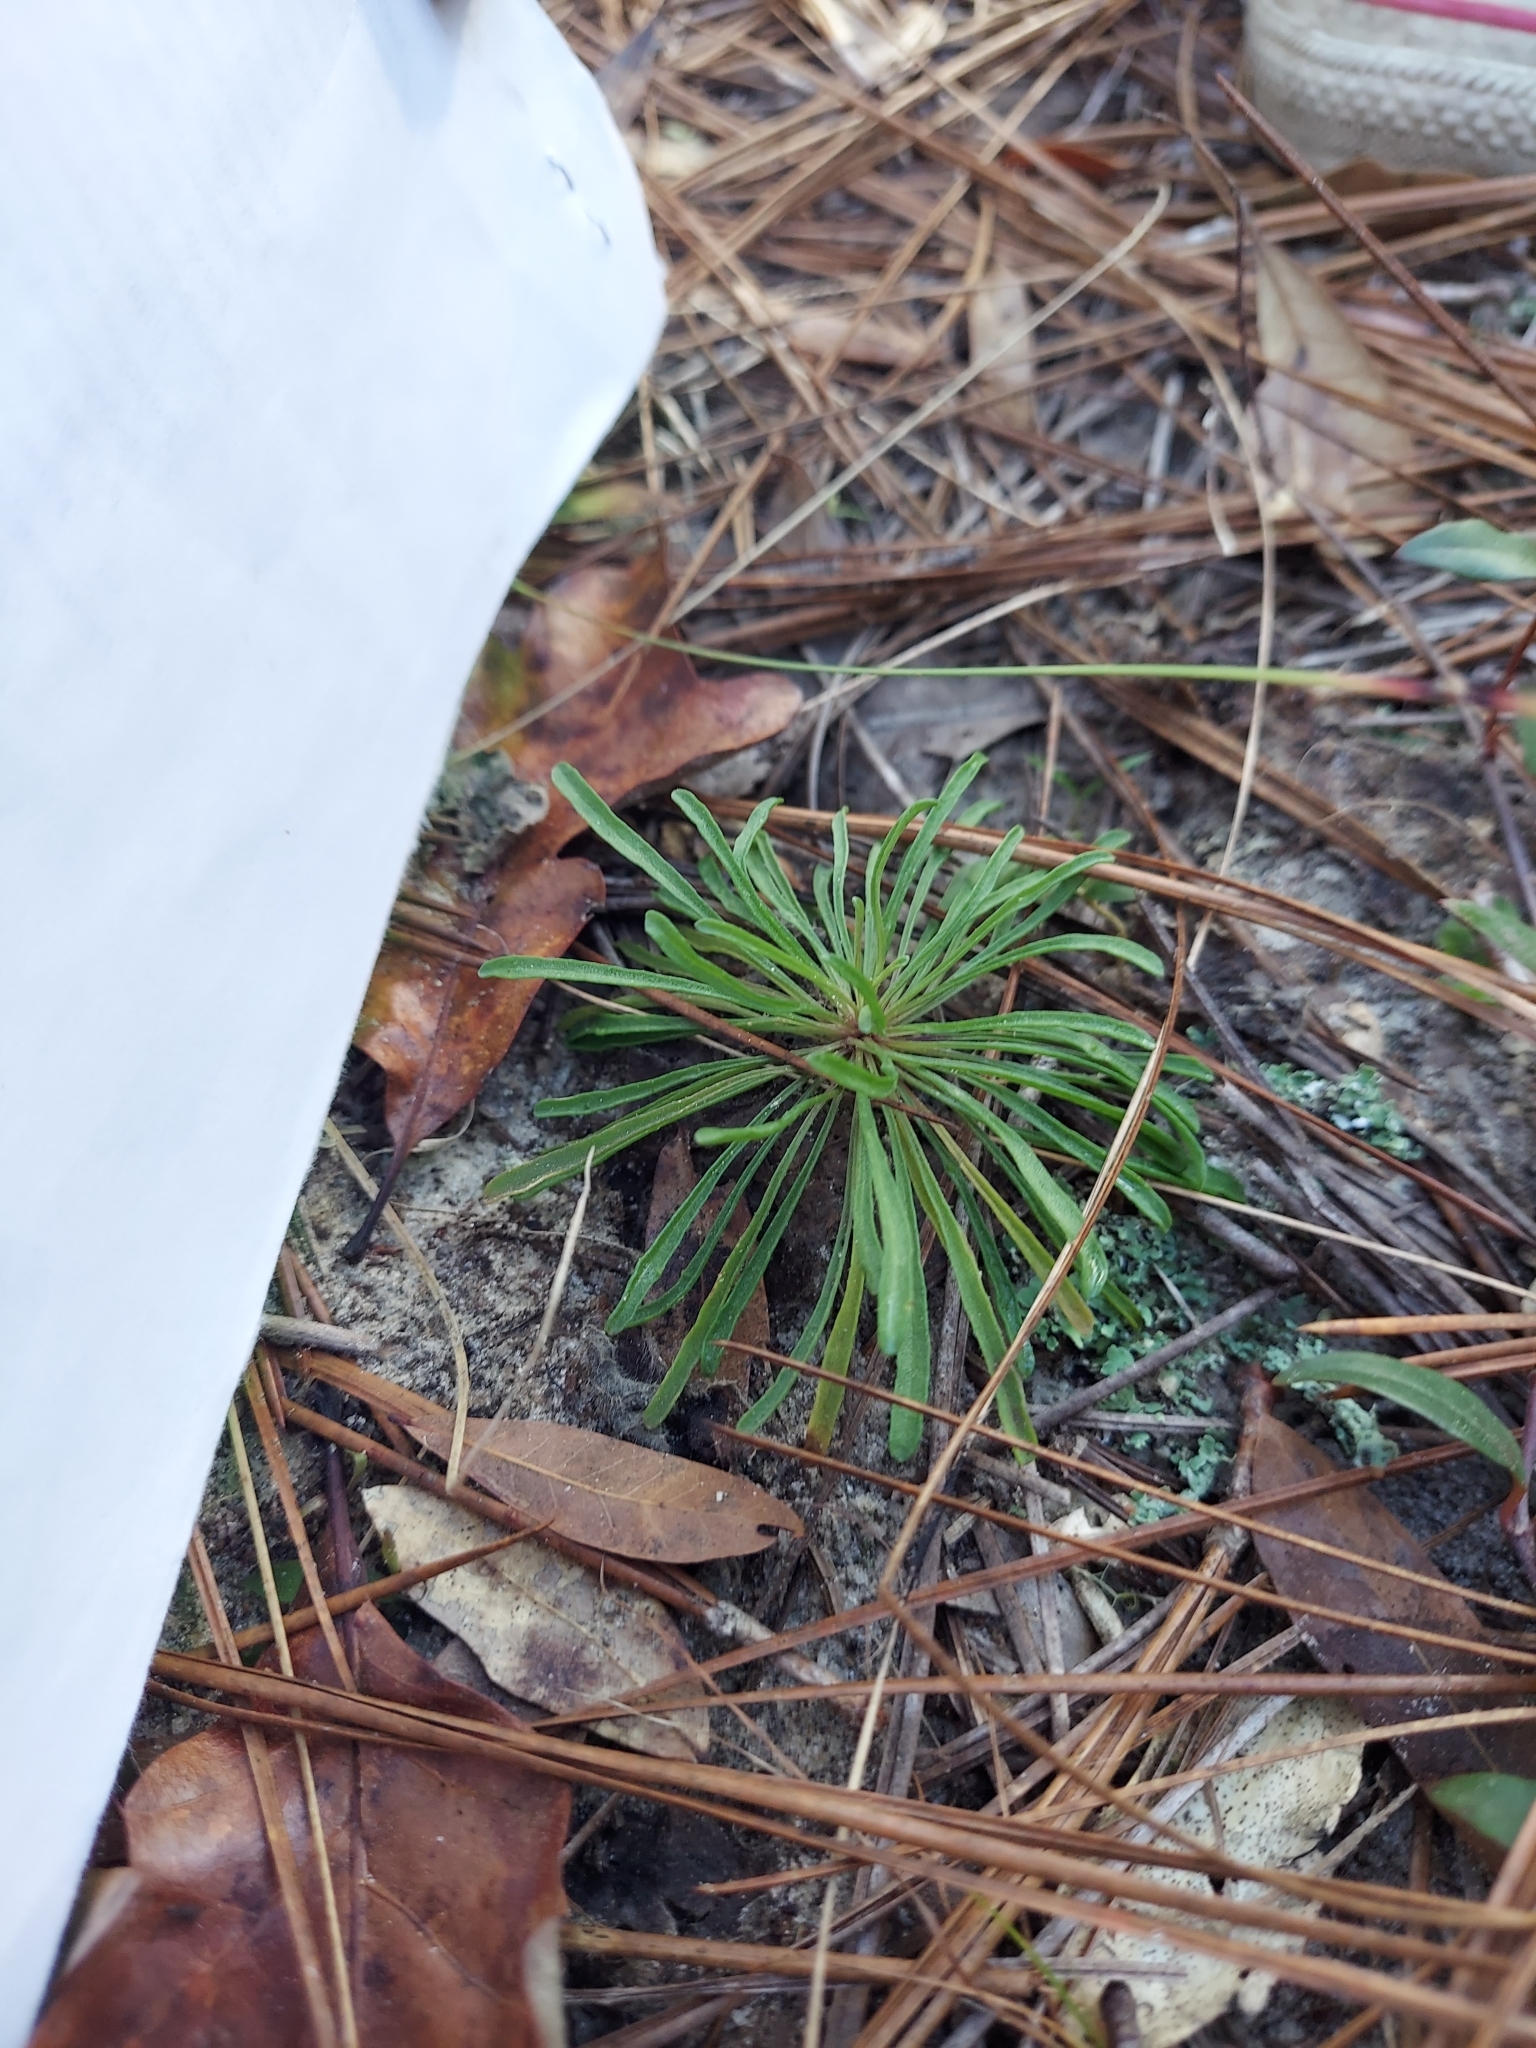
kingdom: Plantae
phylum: Tracheophyta
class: Magnoliopsida
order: Asterales
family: Asteraceae
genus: Balduina
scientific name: Balduina angustifolia
